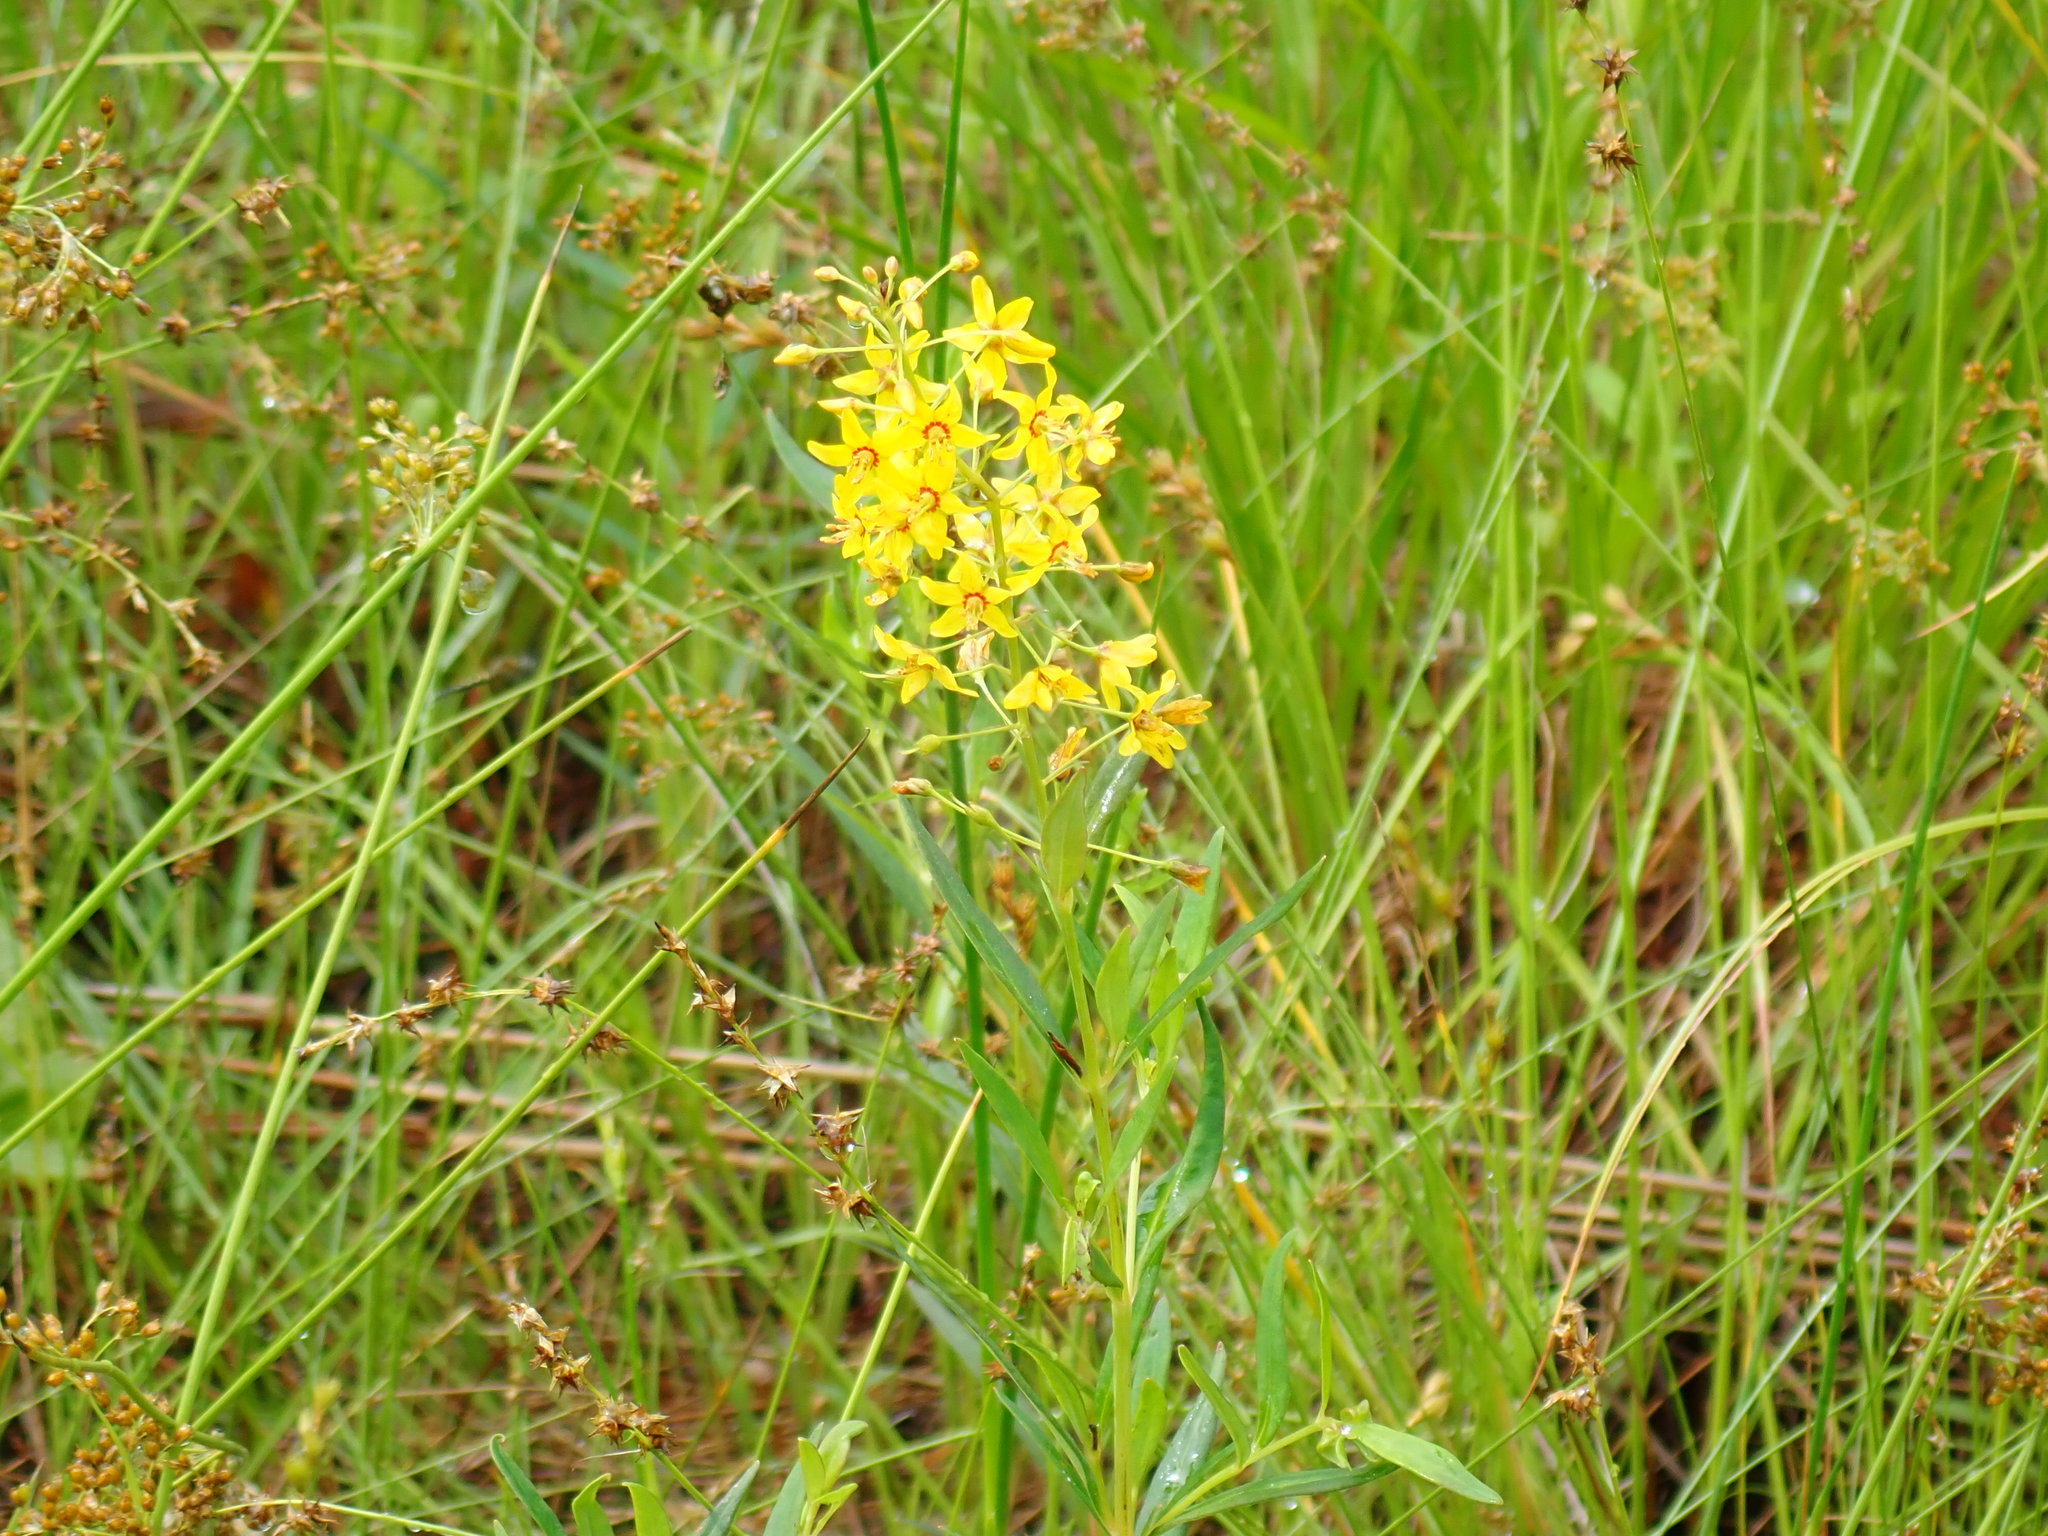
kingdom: Plantae
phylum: Tracheophyta
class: Magnoliopsida
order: Ericales
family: Primulaceae
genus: Lysimachia
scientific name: Lysimachia terrestris
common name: Lake loosestrife
